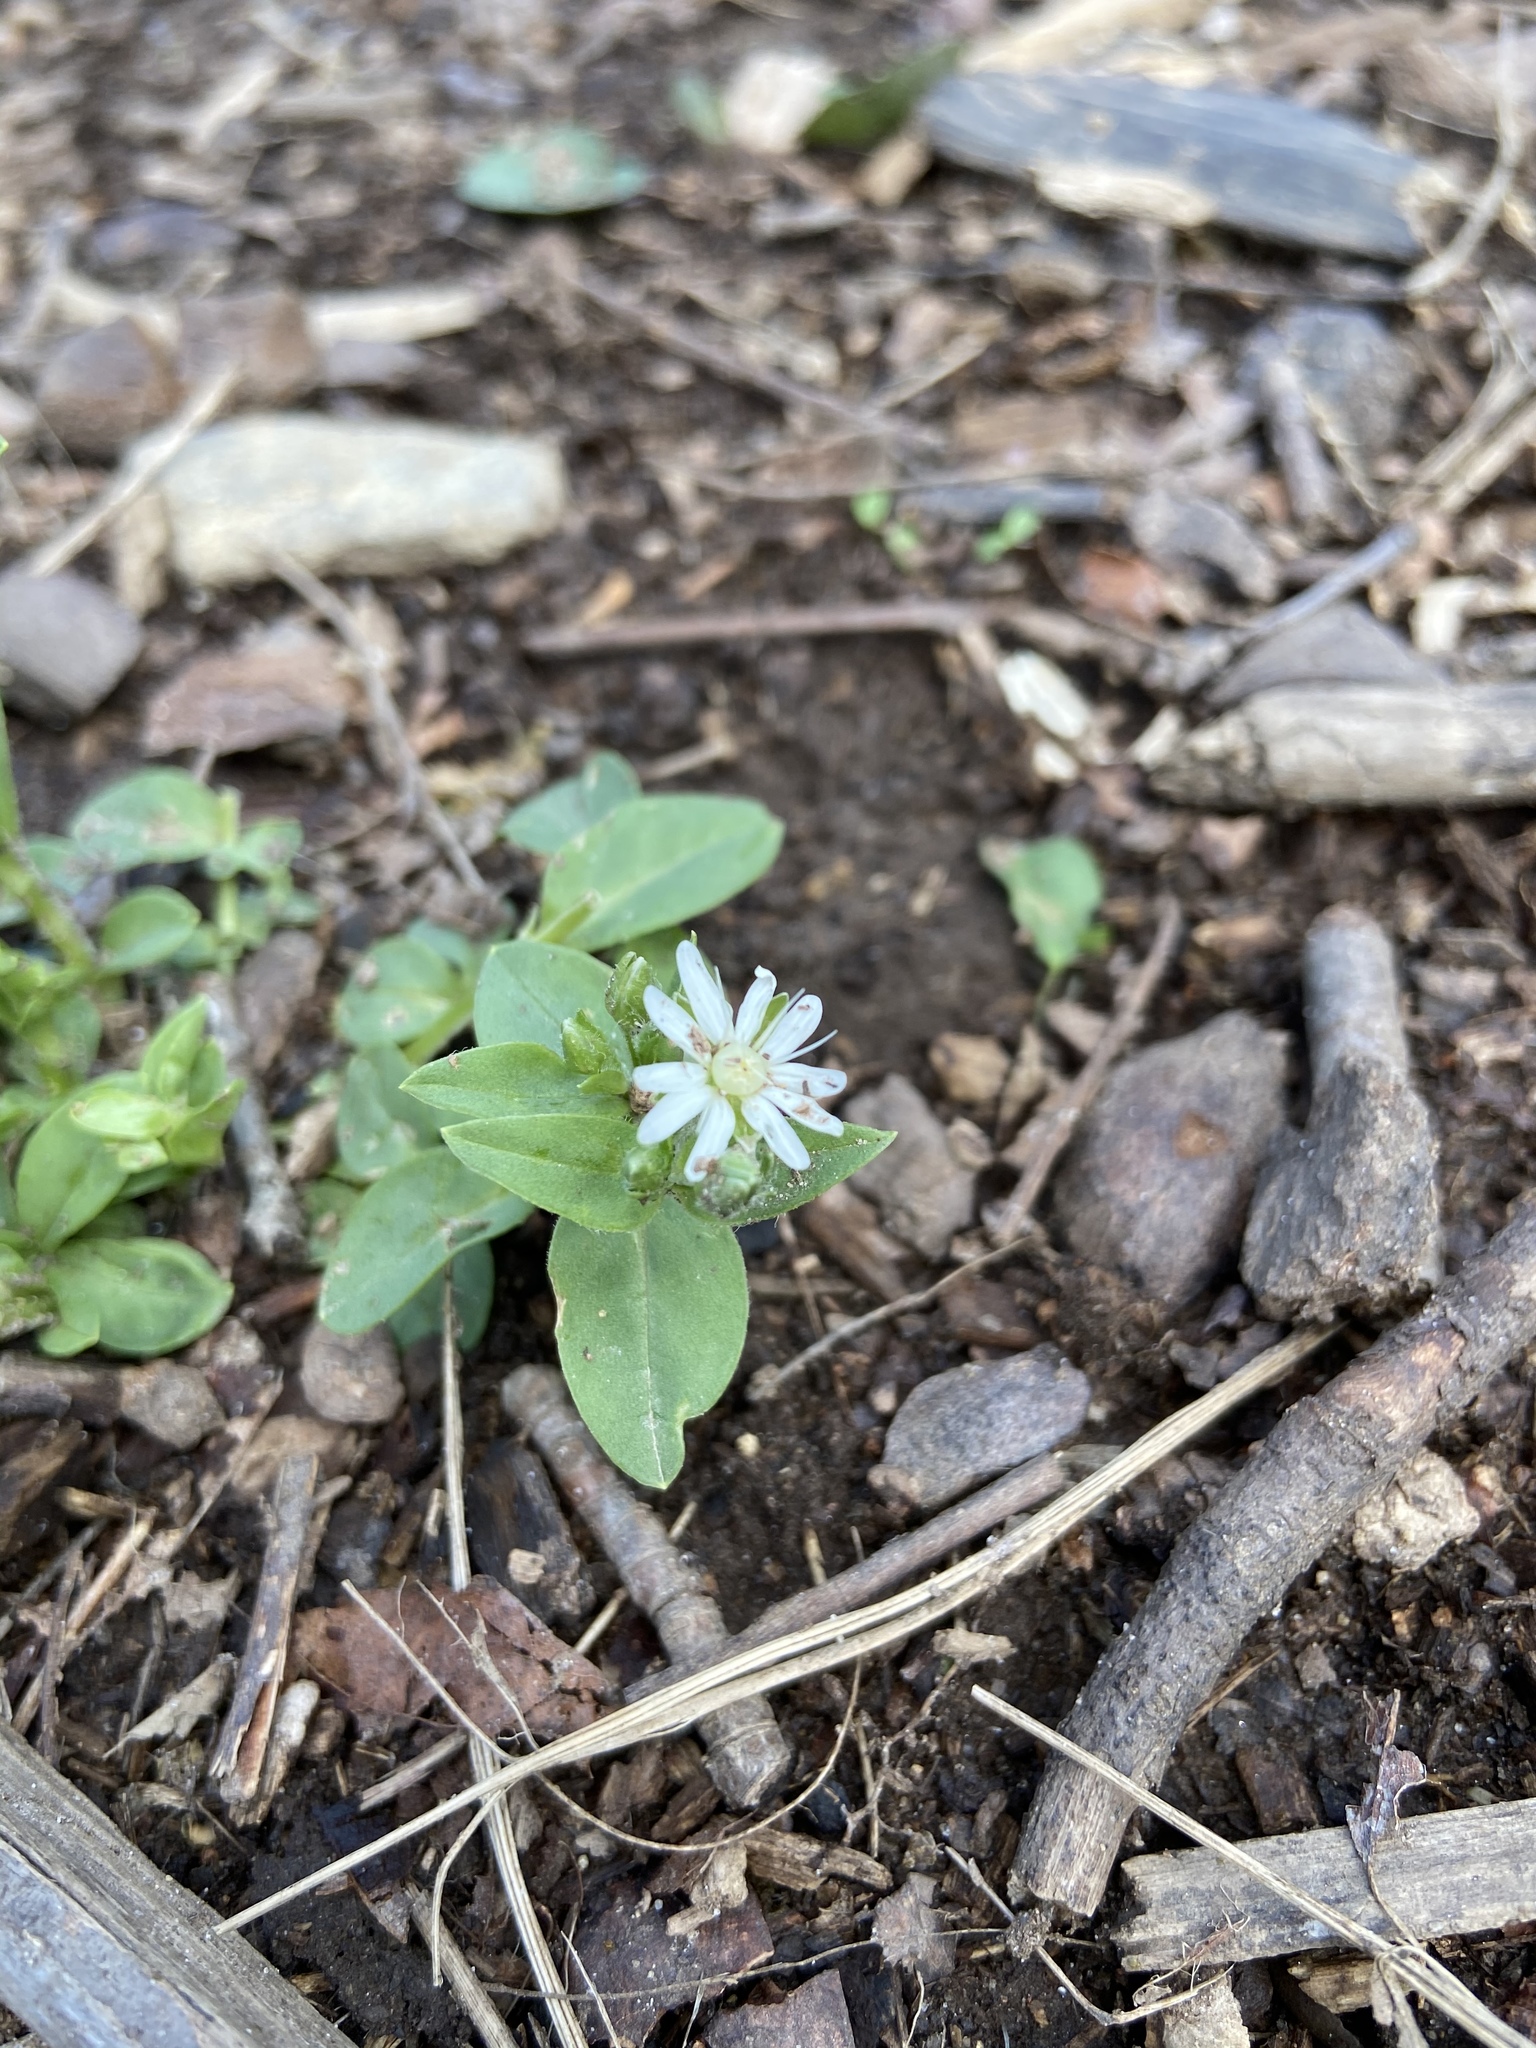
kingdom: Plantae
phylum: Tracheophyta
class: Magnoliopsida
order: Caryophyllales
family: Caryophyllaceae
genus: Stellaria
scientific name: Stellaria pubera
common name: Star chickweed
